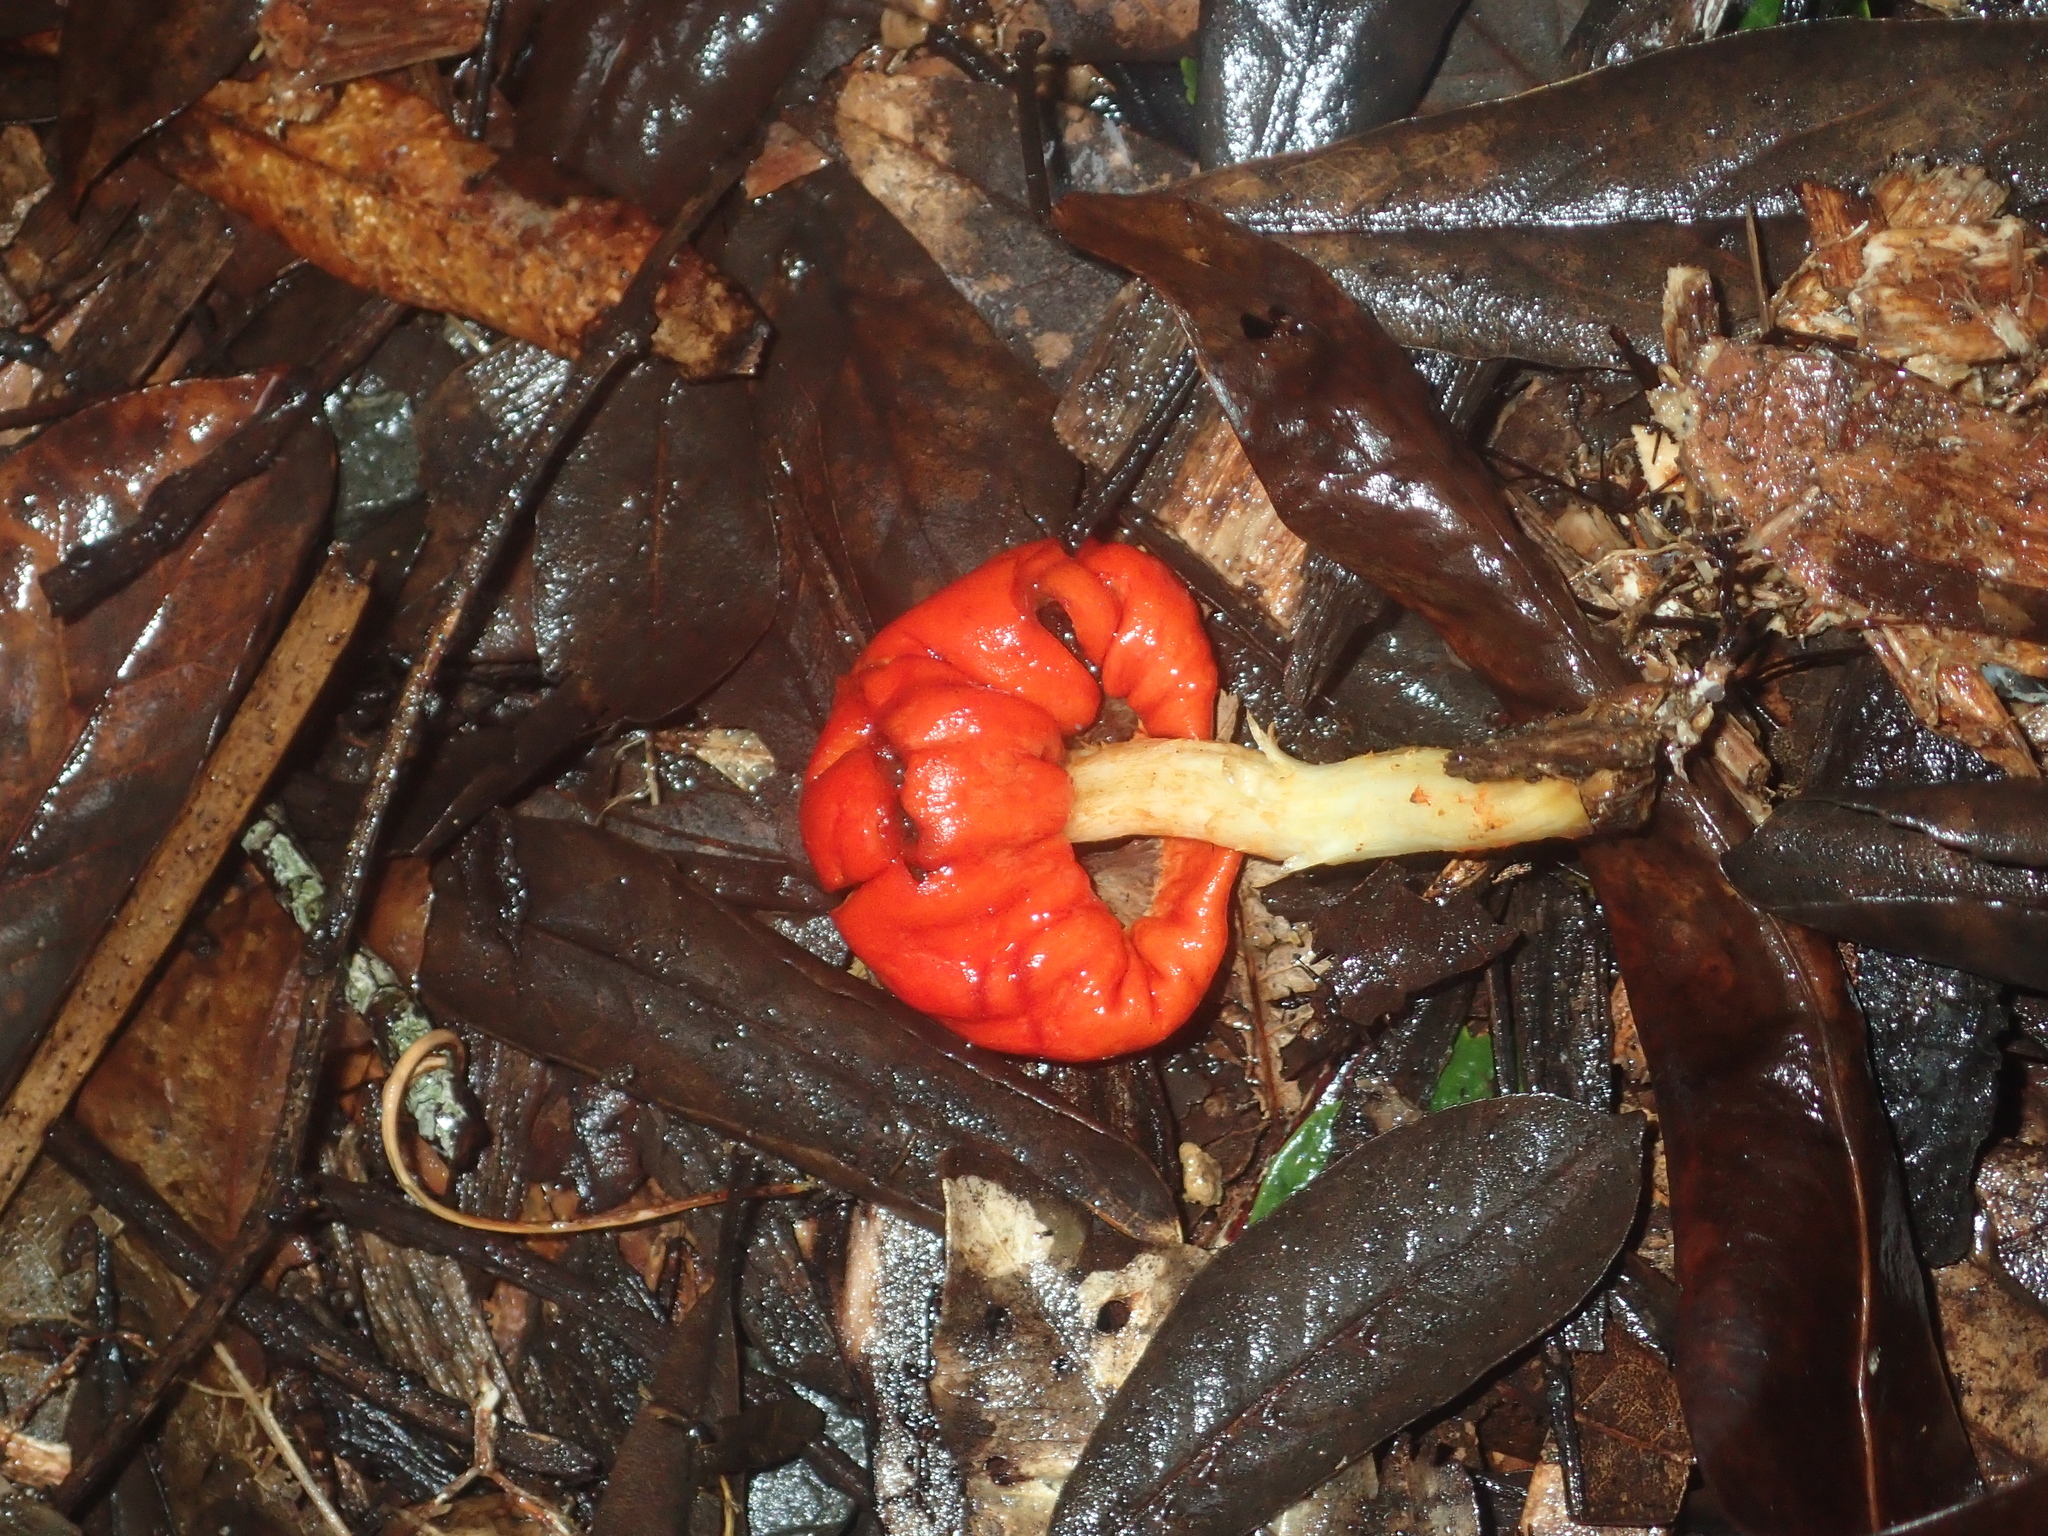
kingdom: Fungi
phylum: Basidiomycota
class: Agaricomycetes
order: Agaricales
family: Strophariaceae
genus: Leratiomyces
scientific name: Leratiomyces erythrocephalus
